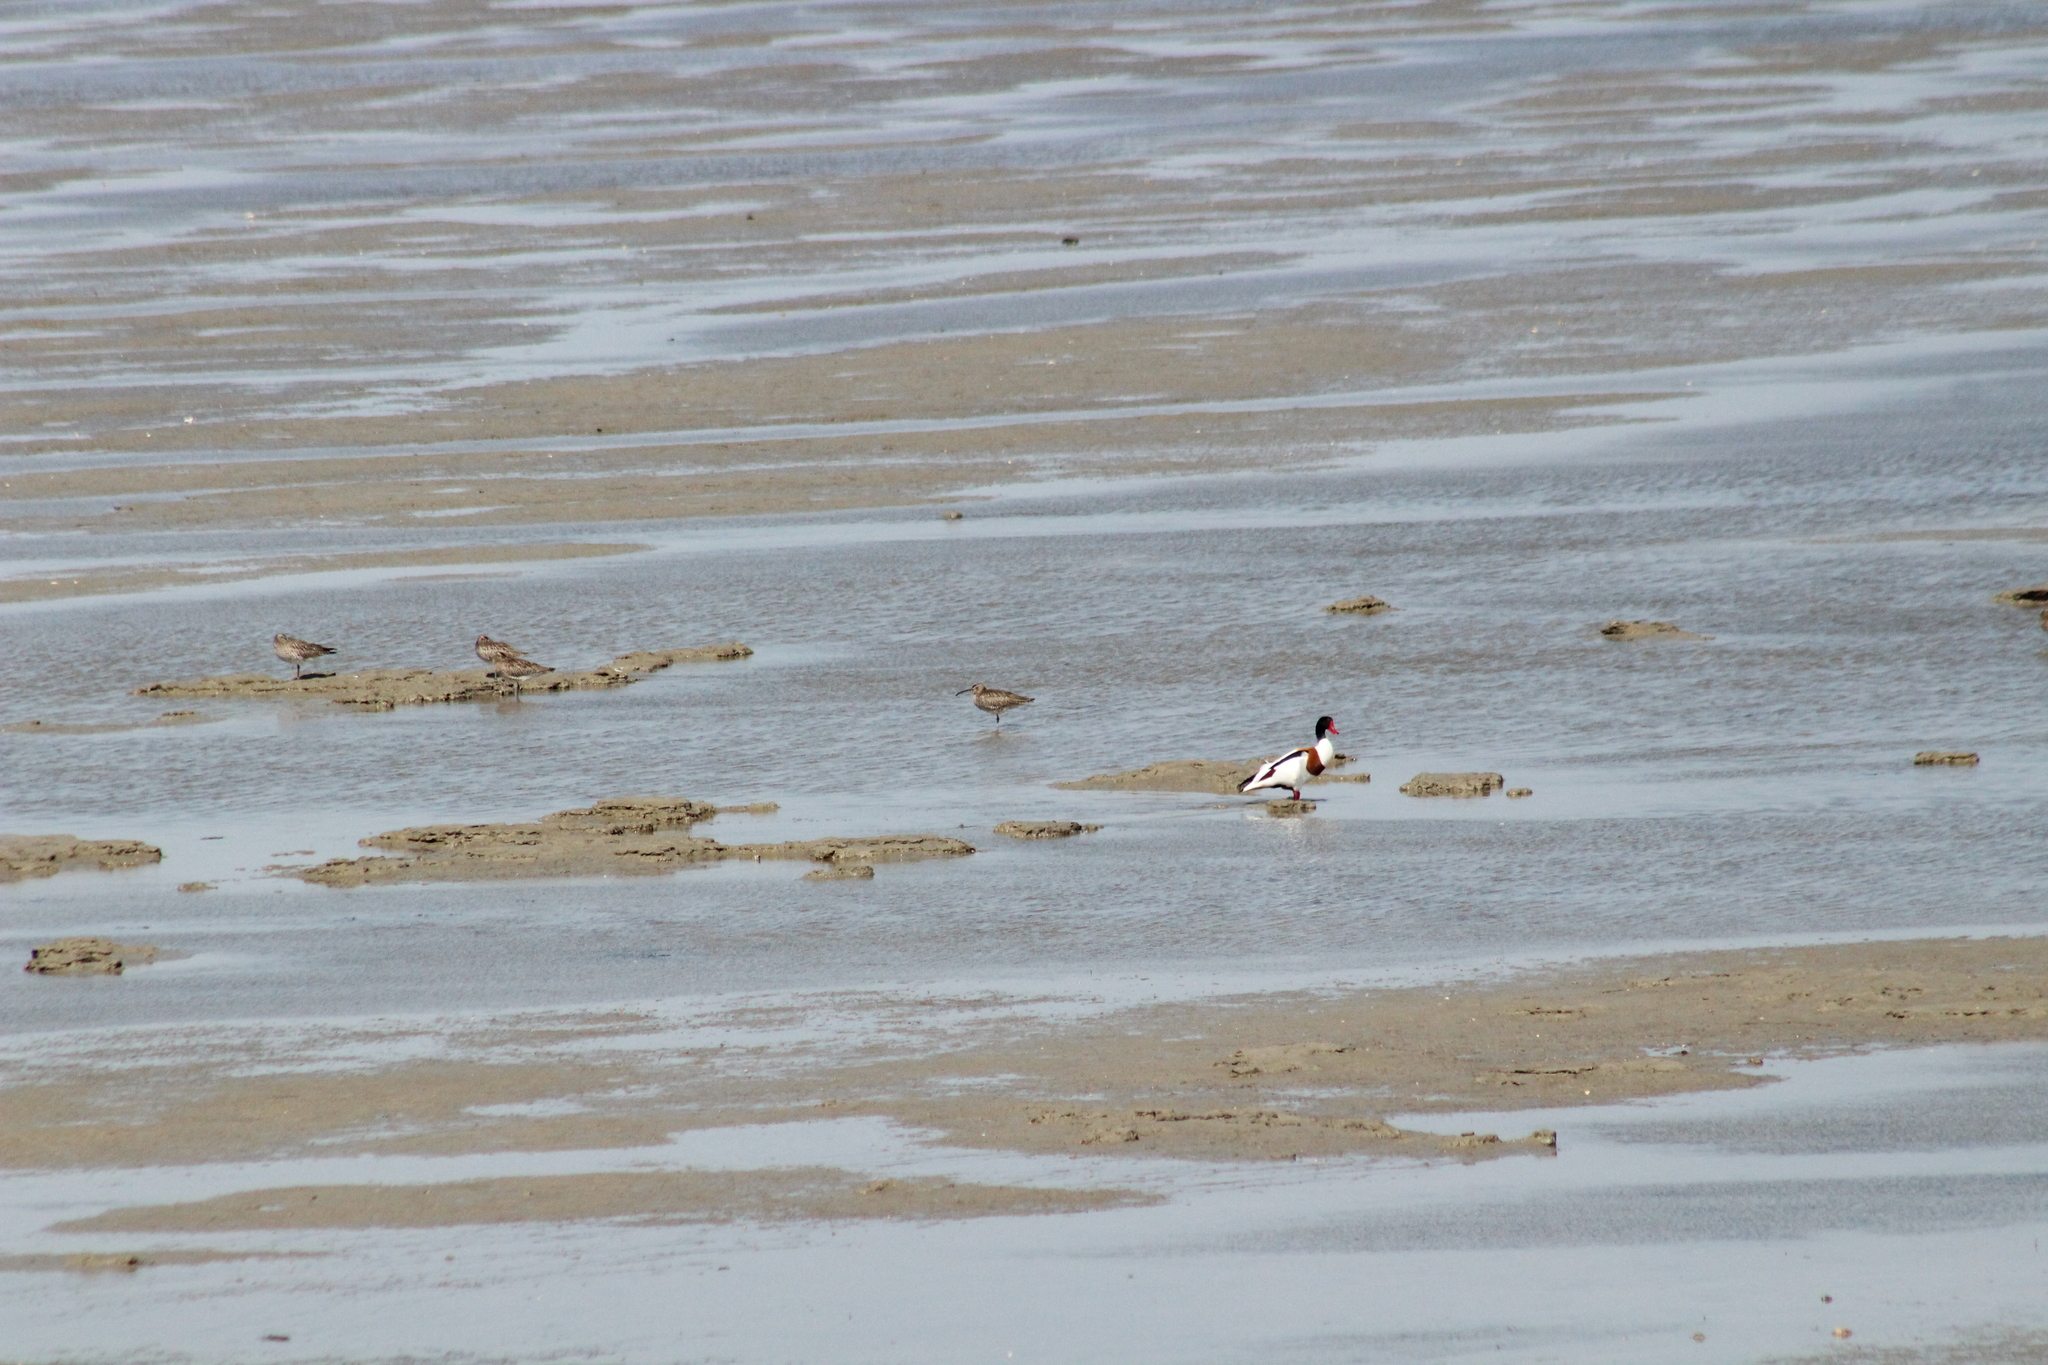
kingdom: Animalia
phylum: Chordata
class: Aves
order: Charadriiformes
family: Scolopacidae
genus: Numenius
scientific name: Numenius phaeopus
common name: Whimbrel
